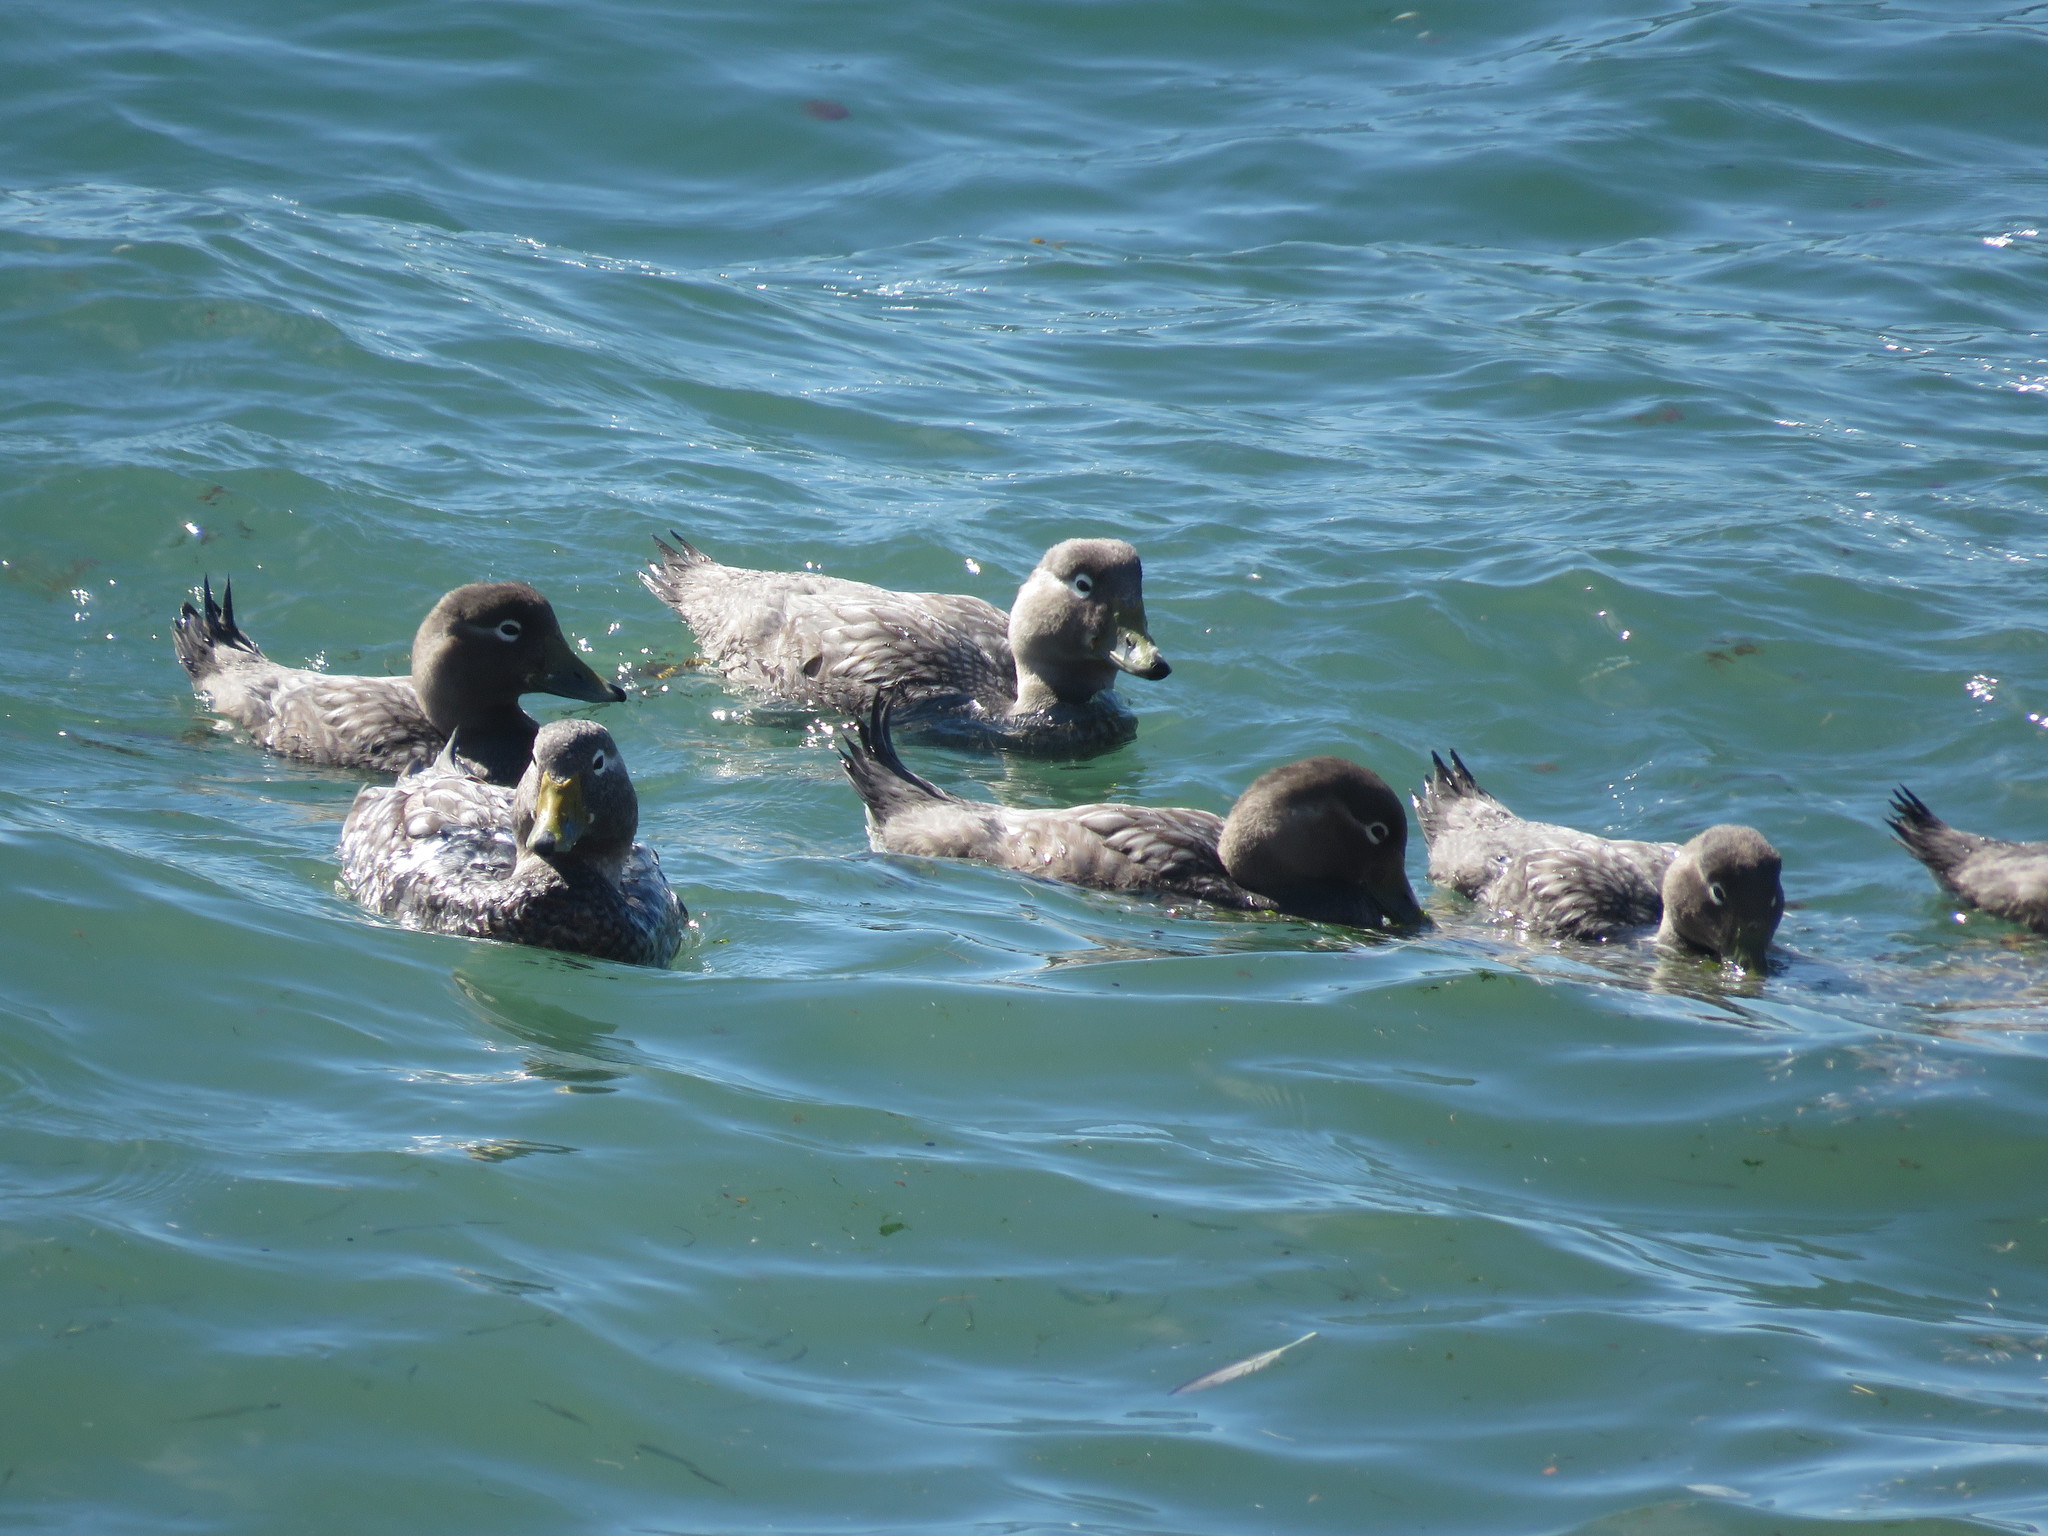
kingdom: Animalia
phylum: Chordata
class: Aves
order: Anseriformes
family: Anatidae
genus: Tachyeres
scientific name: Tachyeres patachonicus
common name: Flying steamer duck
